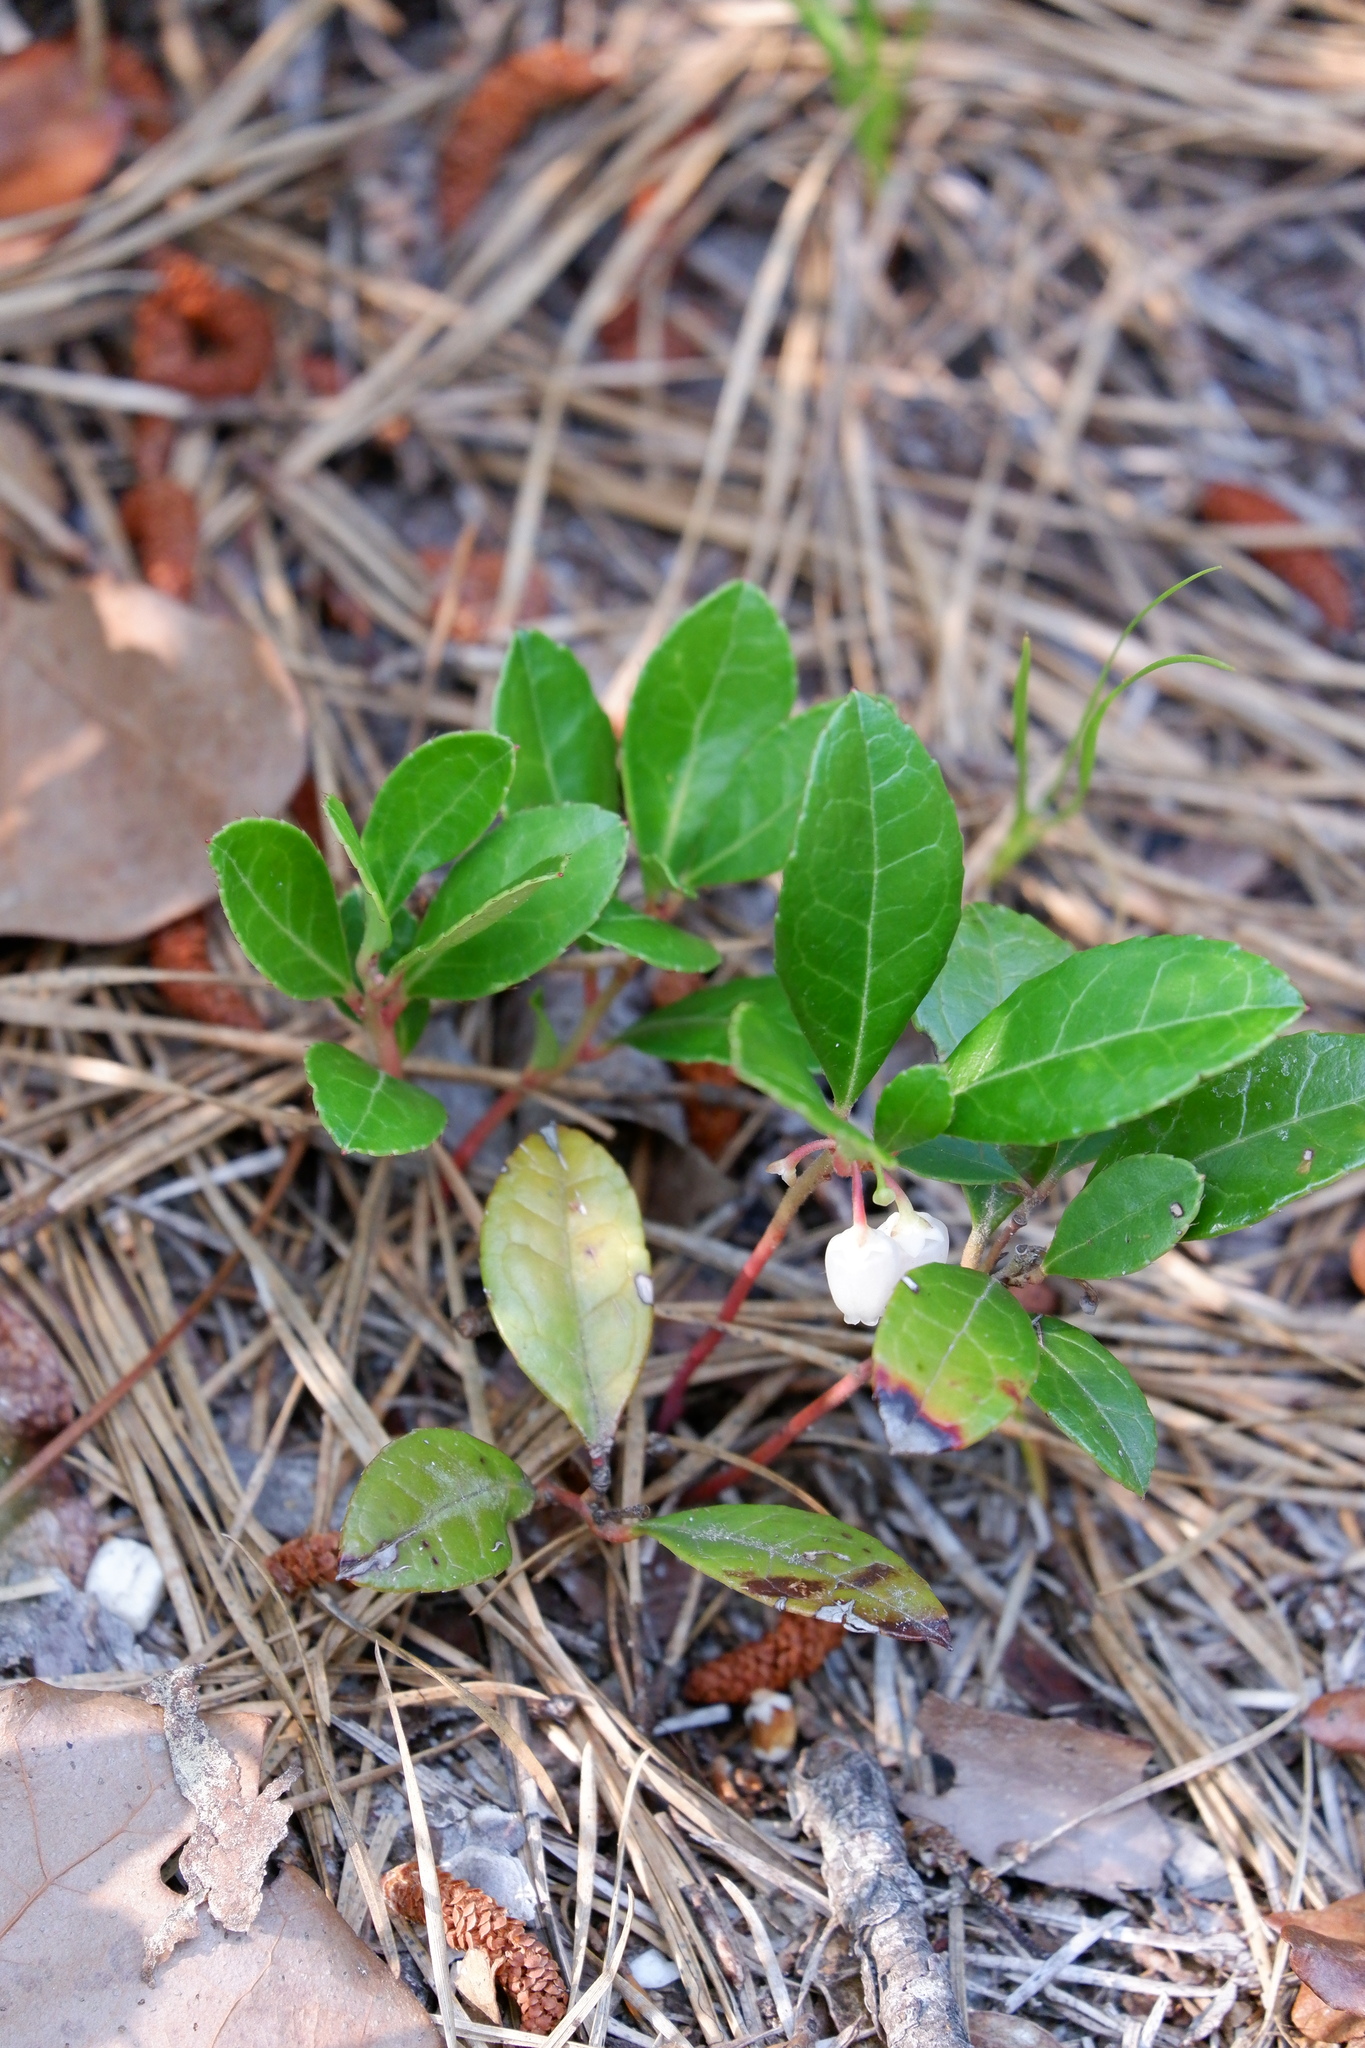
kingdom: Plantae
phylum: Tracheophyta
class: Magnoliopsida
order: Ericales
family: Ericaceae
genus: Gaultheria
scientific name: Gaultheria procumbens
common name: Checkerberry
